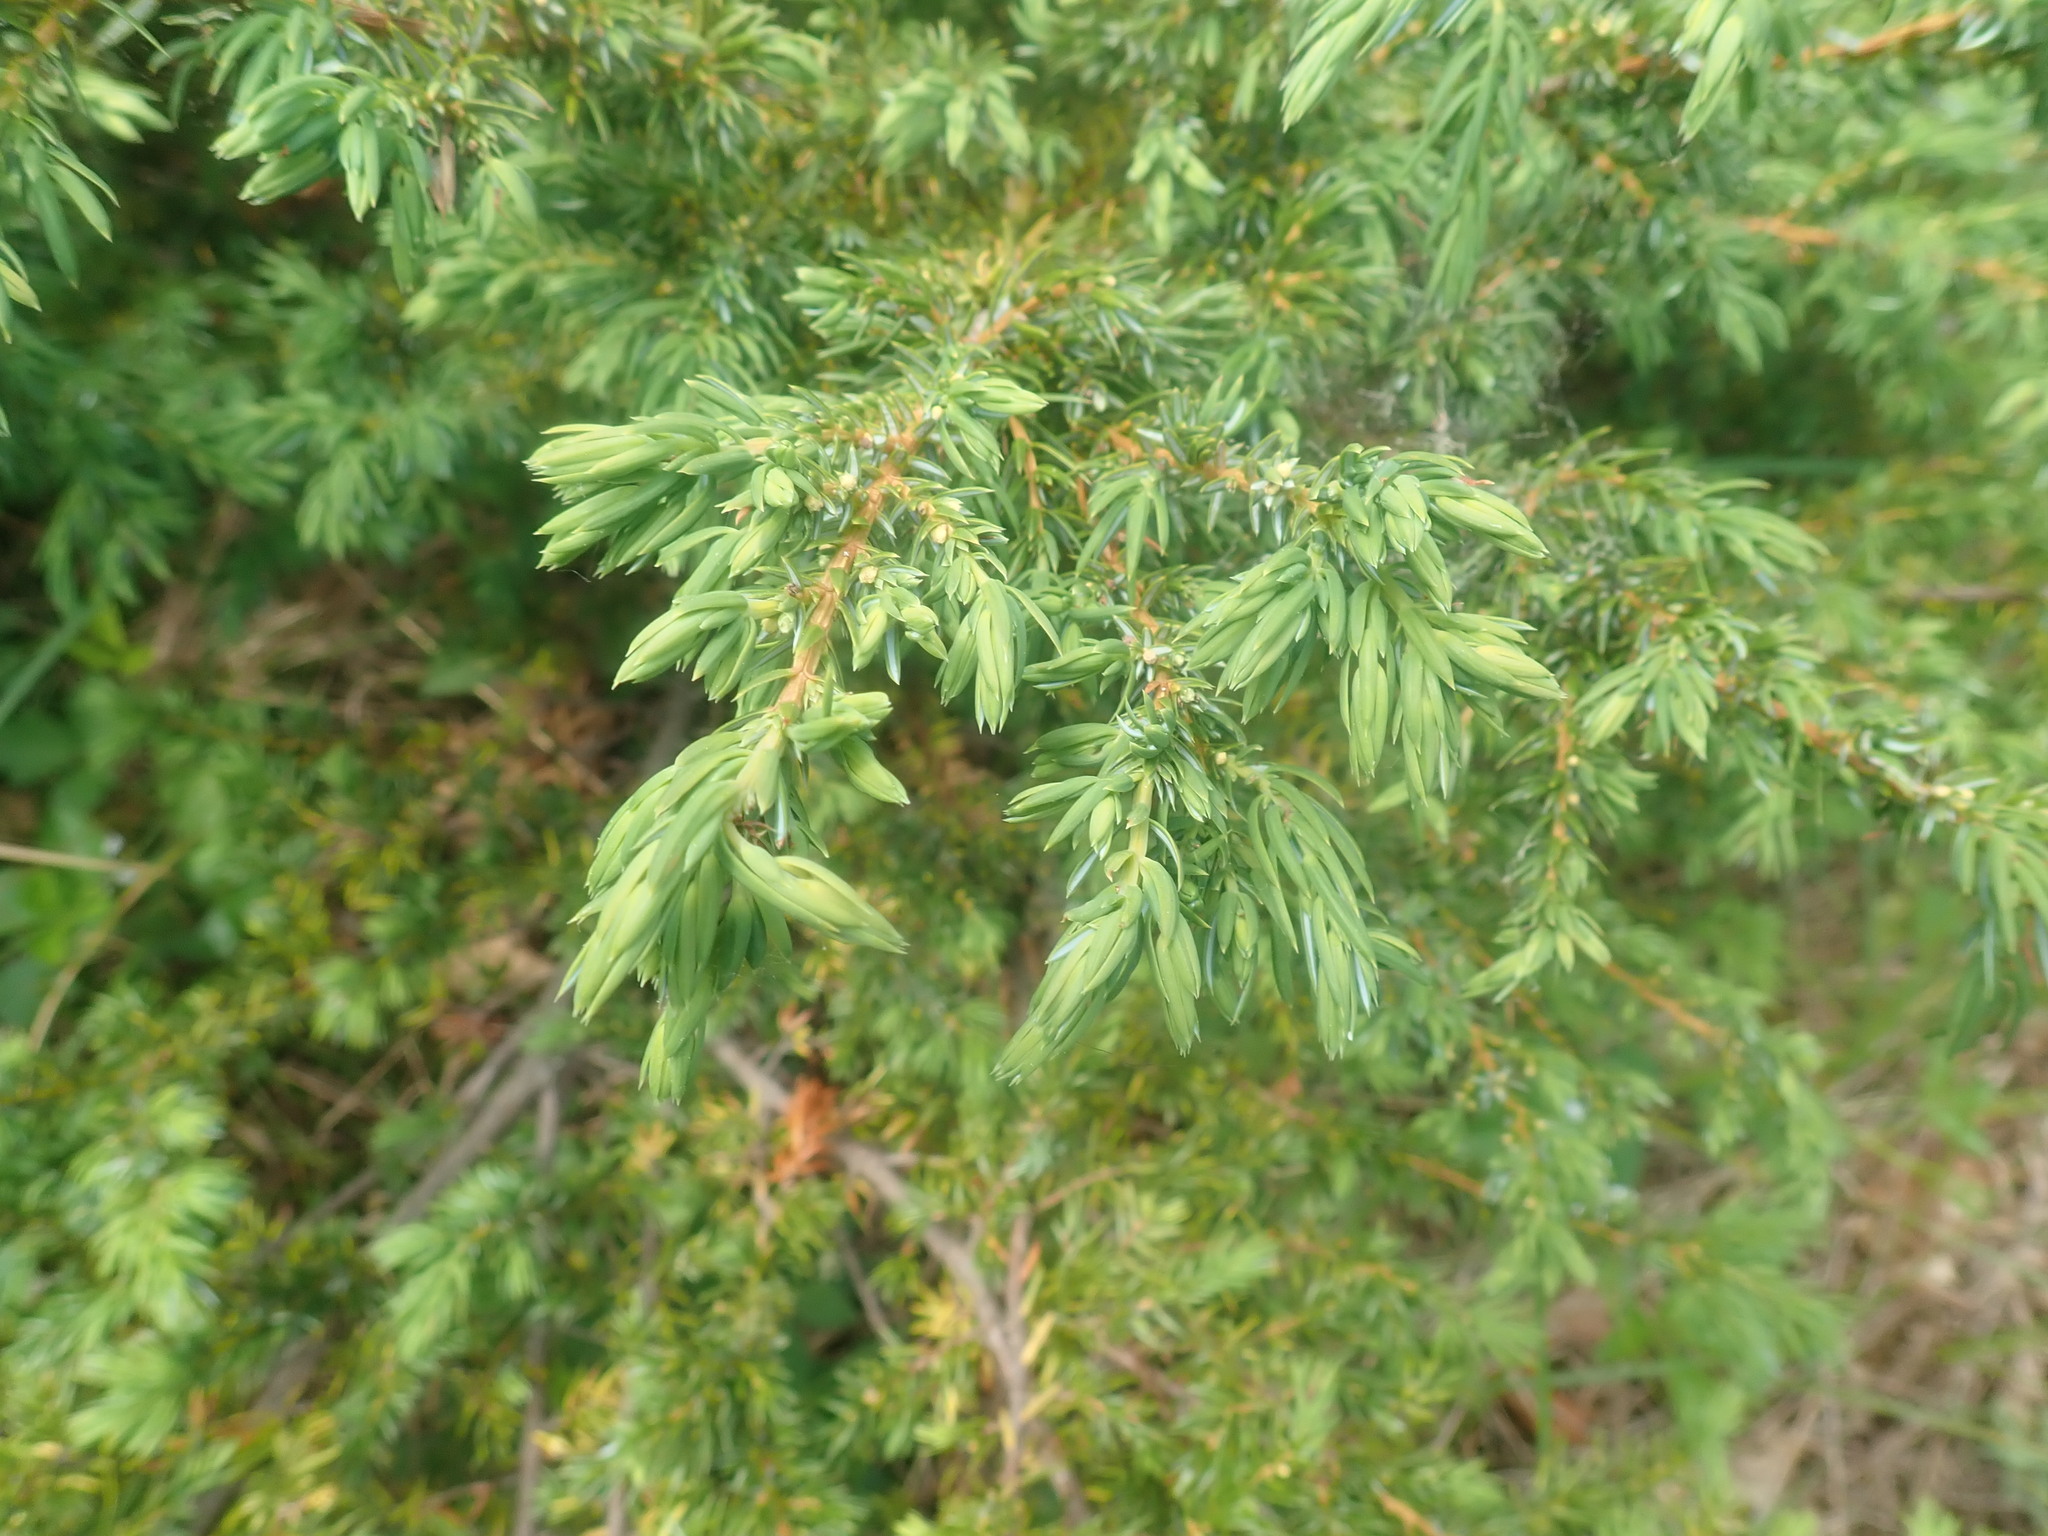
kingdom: Plantae
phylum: Tracheophyta
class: Pinopsida
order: Pinales
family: Cupressaceae
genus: Juniperus
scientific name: Juniperus communis
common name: Common juniper
